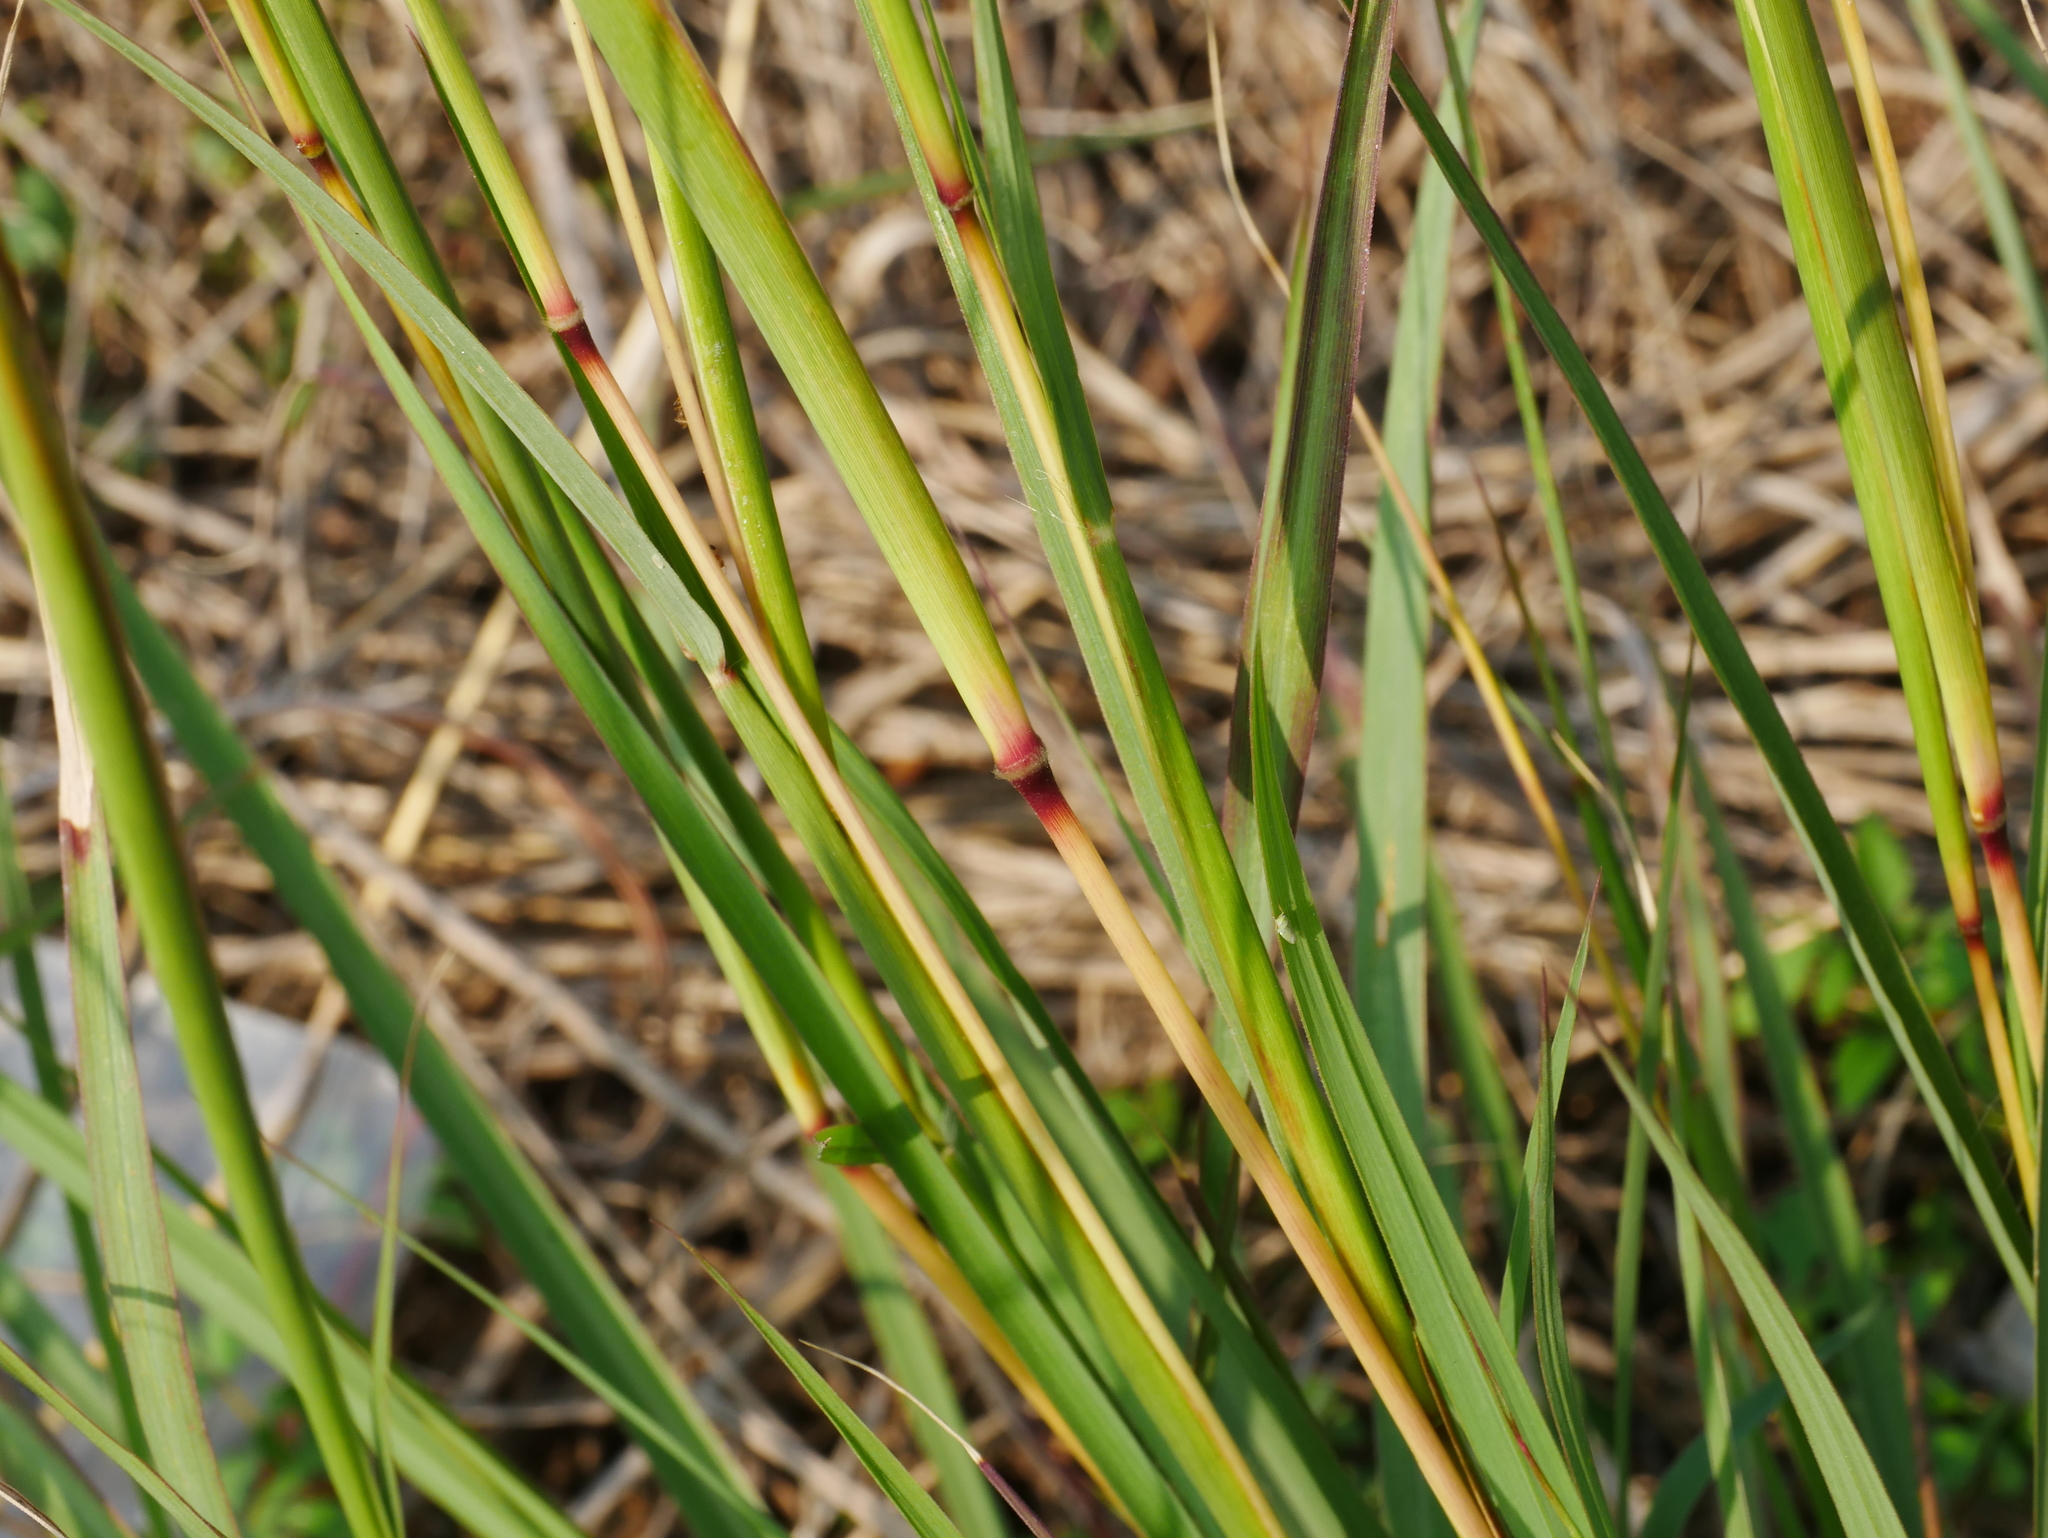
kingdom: Plantae
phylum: Tracheophyta
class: Liliopsida
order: Poales
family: Poaceae
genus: Dichanthium
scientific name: Dichanthium annulatum
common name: Kleberg's bluestem
